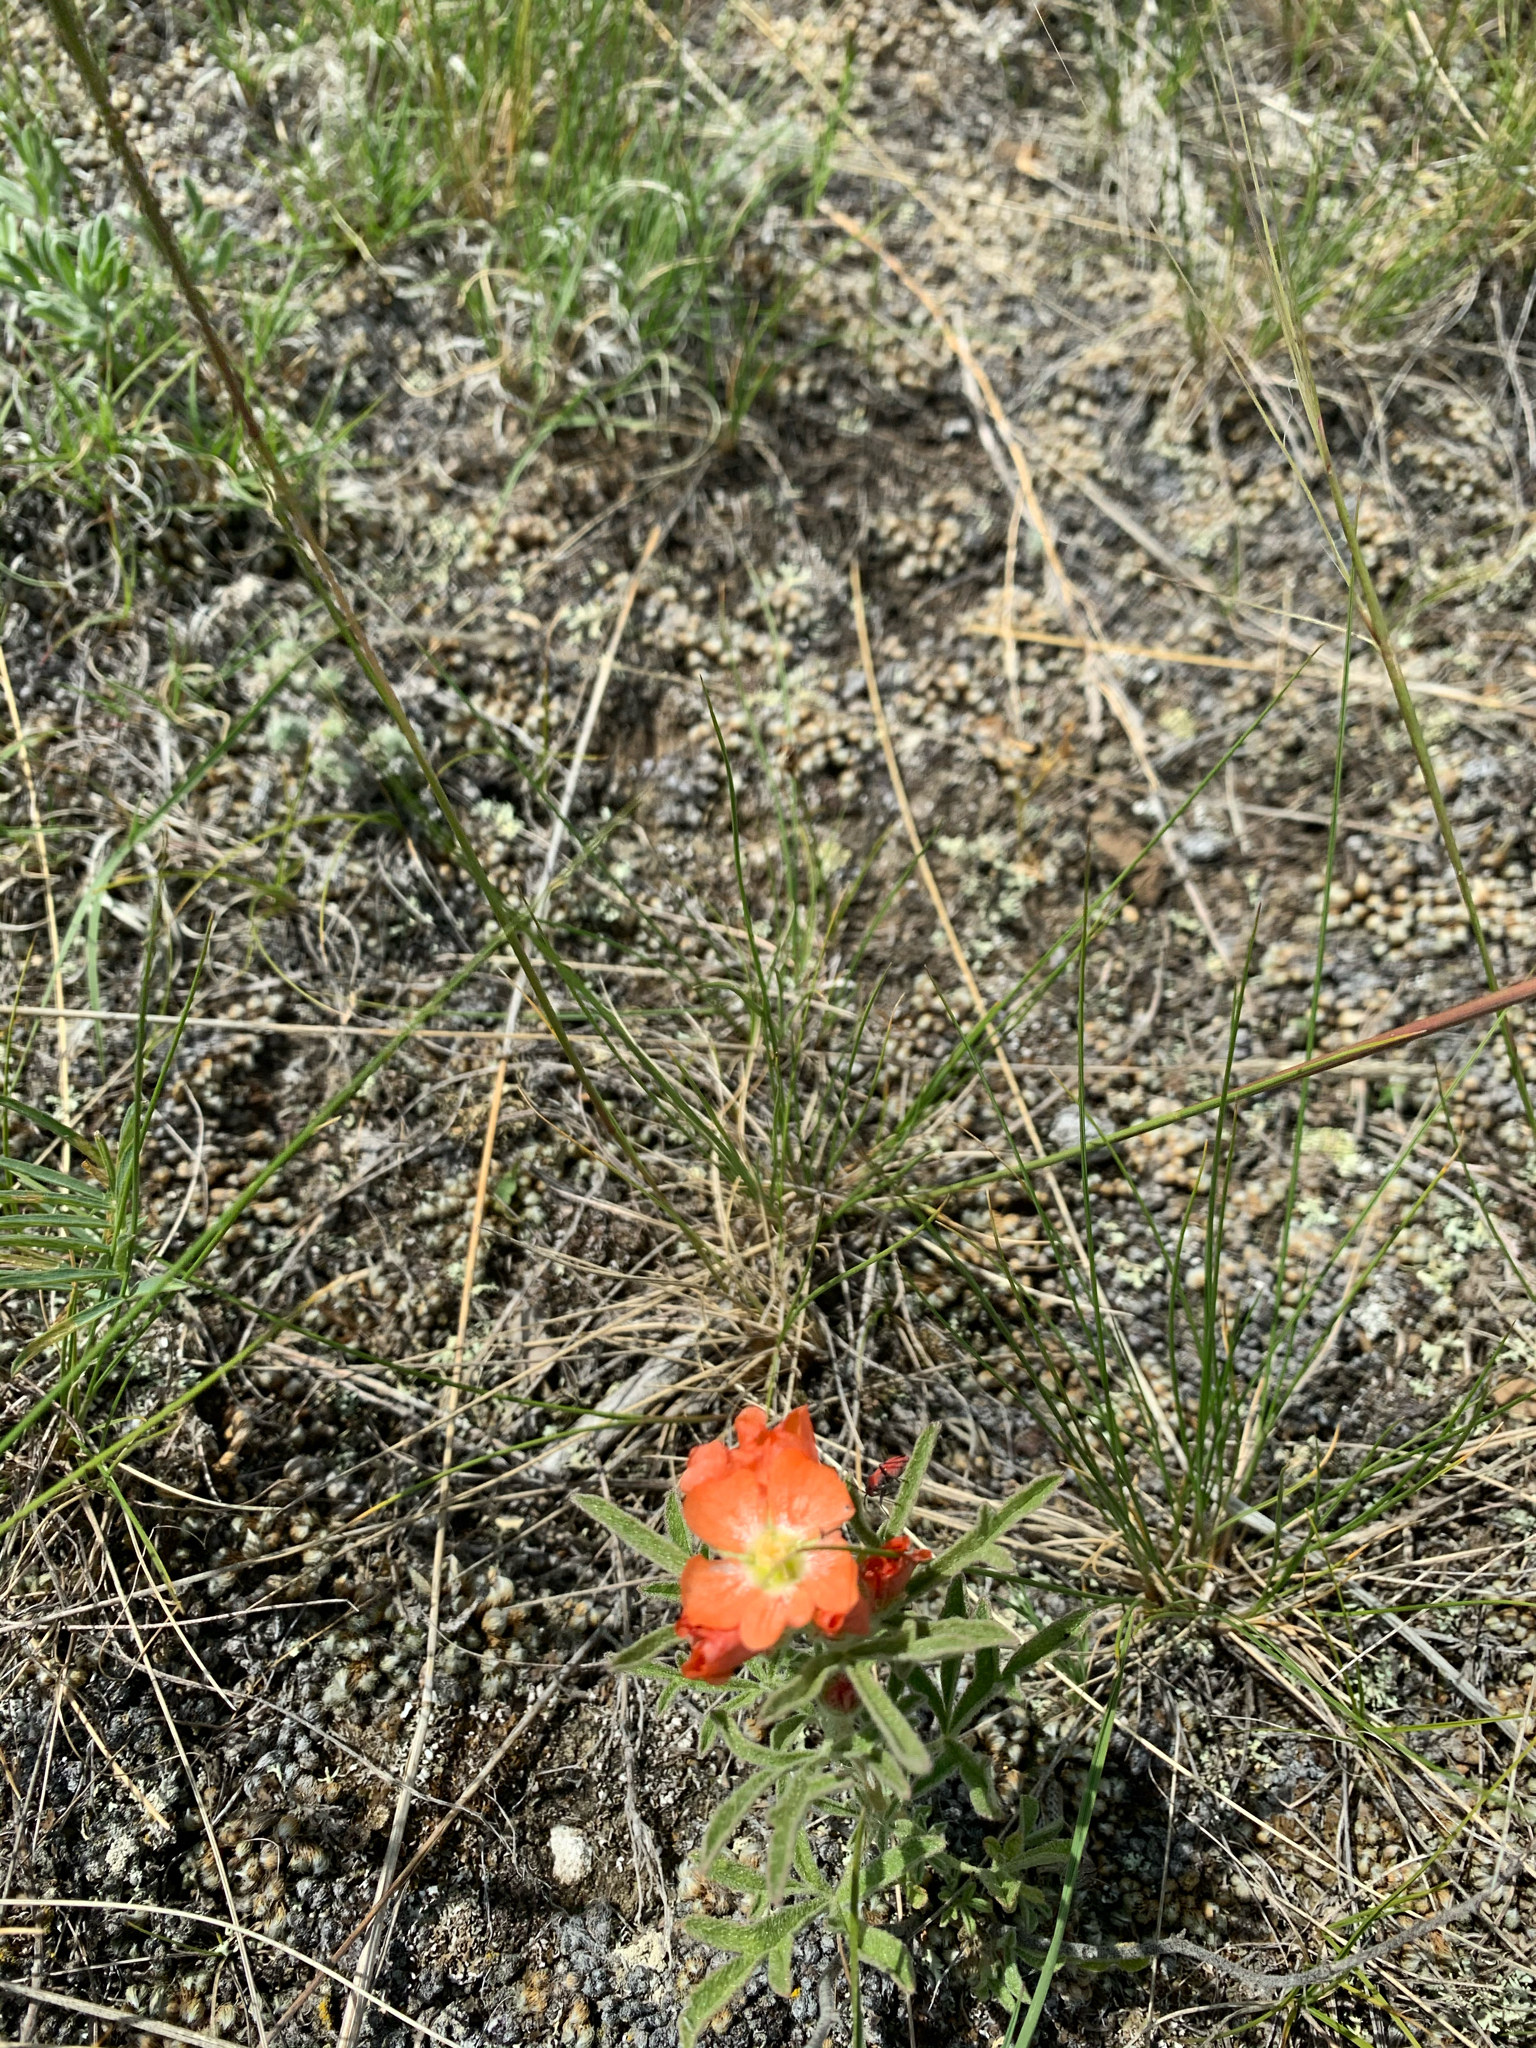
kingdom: Plantae
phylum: Tracheophyta
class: Magnoliopsida
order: Malvales
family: Malvaceae
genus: Sphaeralcea
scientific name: Sphaeralcea coccinea
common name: Moss-rose
